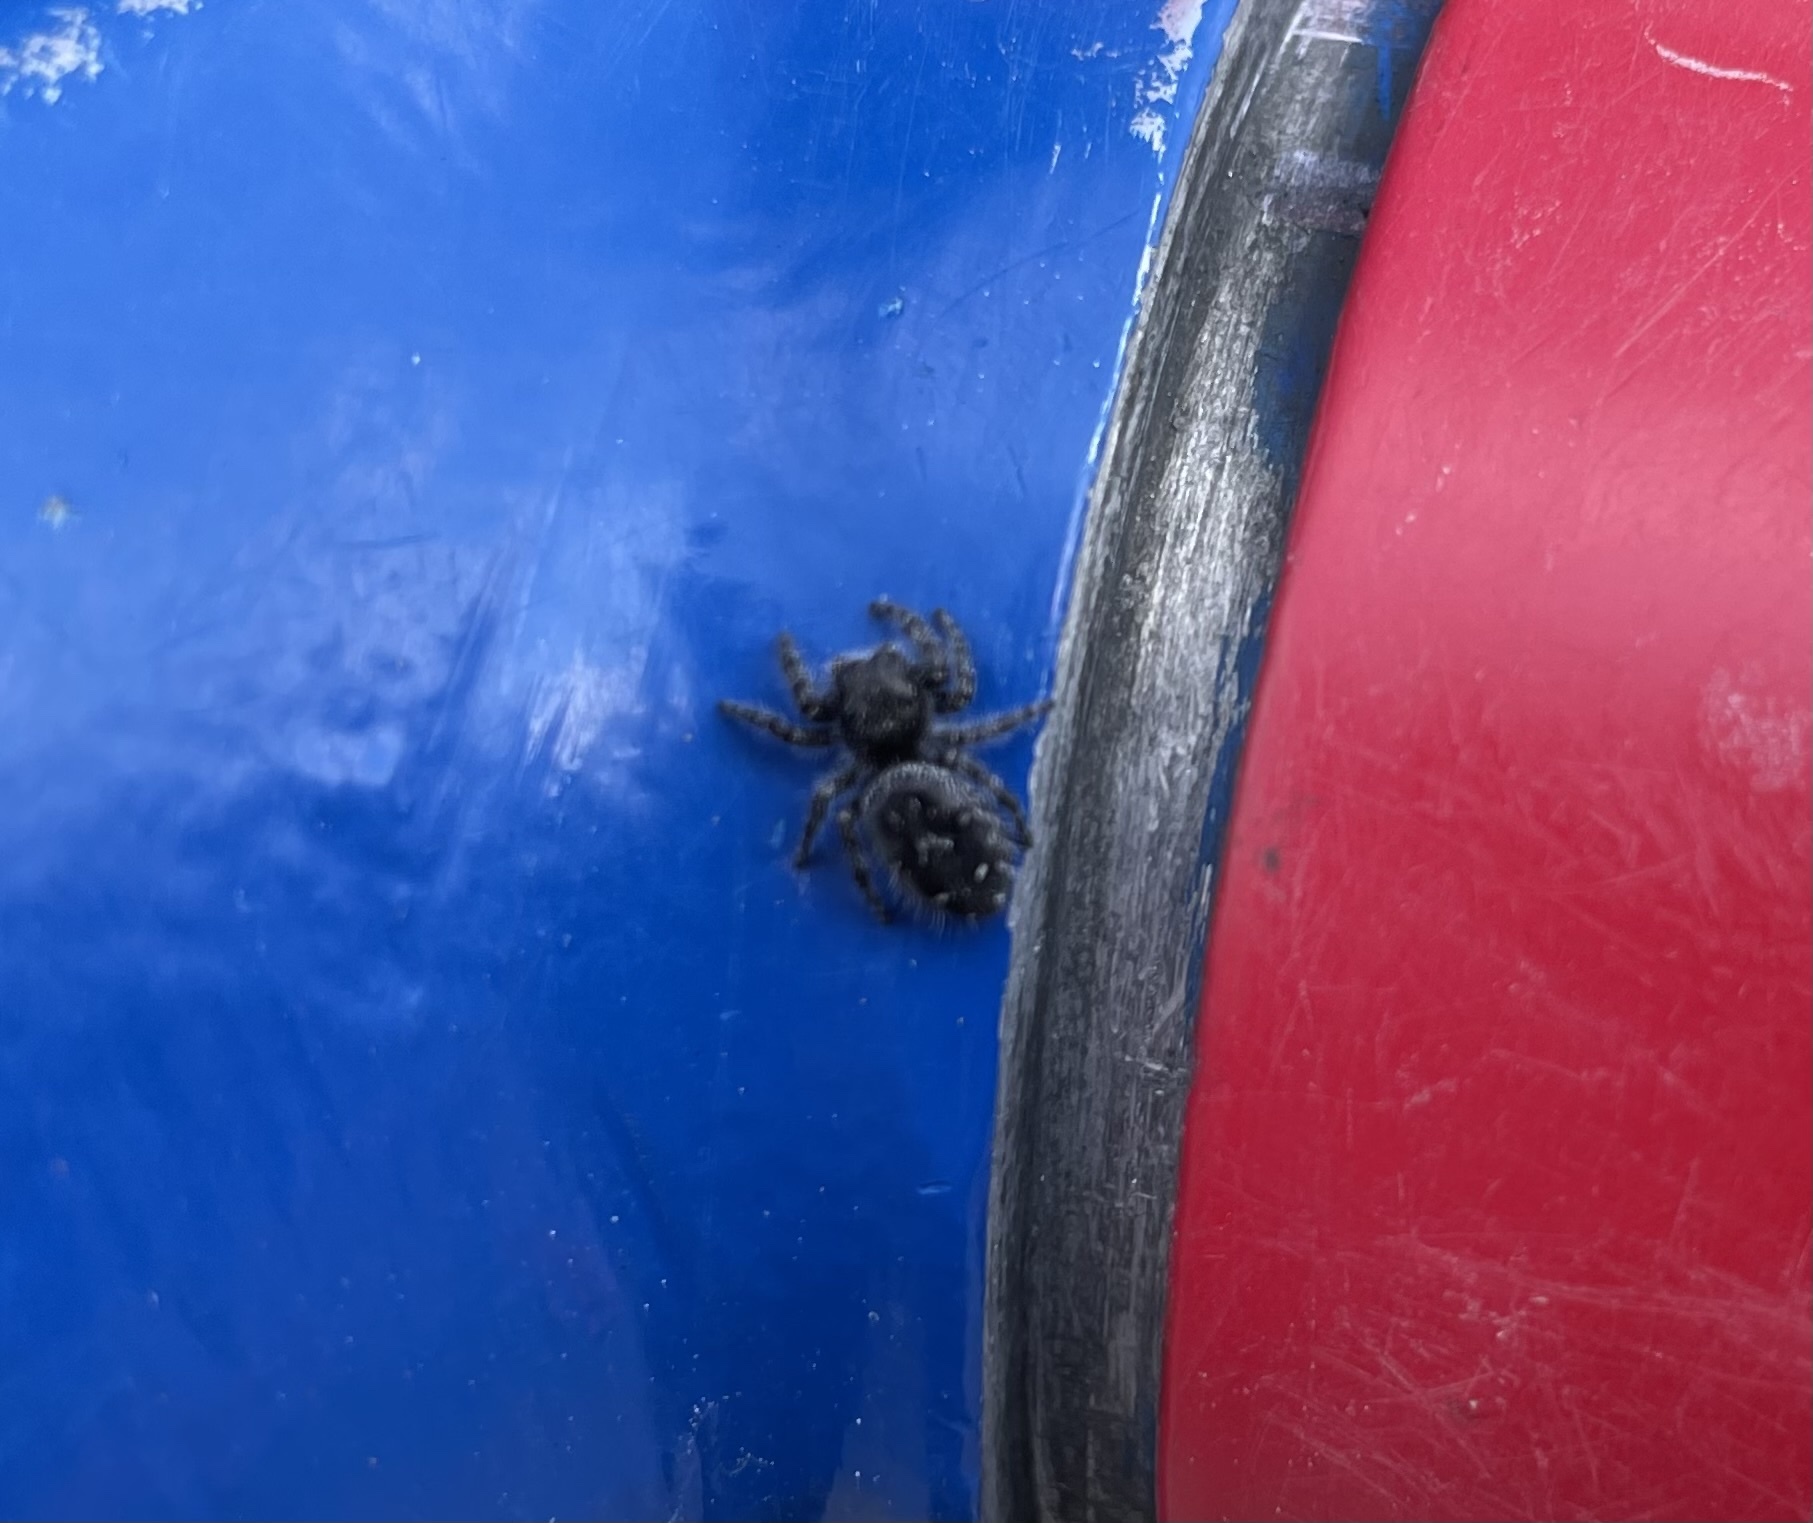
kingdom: Animalia
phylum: Arthropoda
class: Arachnida
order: Araneae
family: Salticidae
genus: Phidippus
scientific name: Phidippus borealis
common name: Boreal tufted jumping spider
